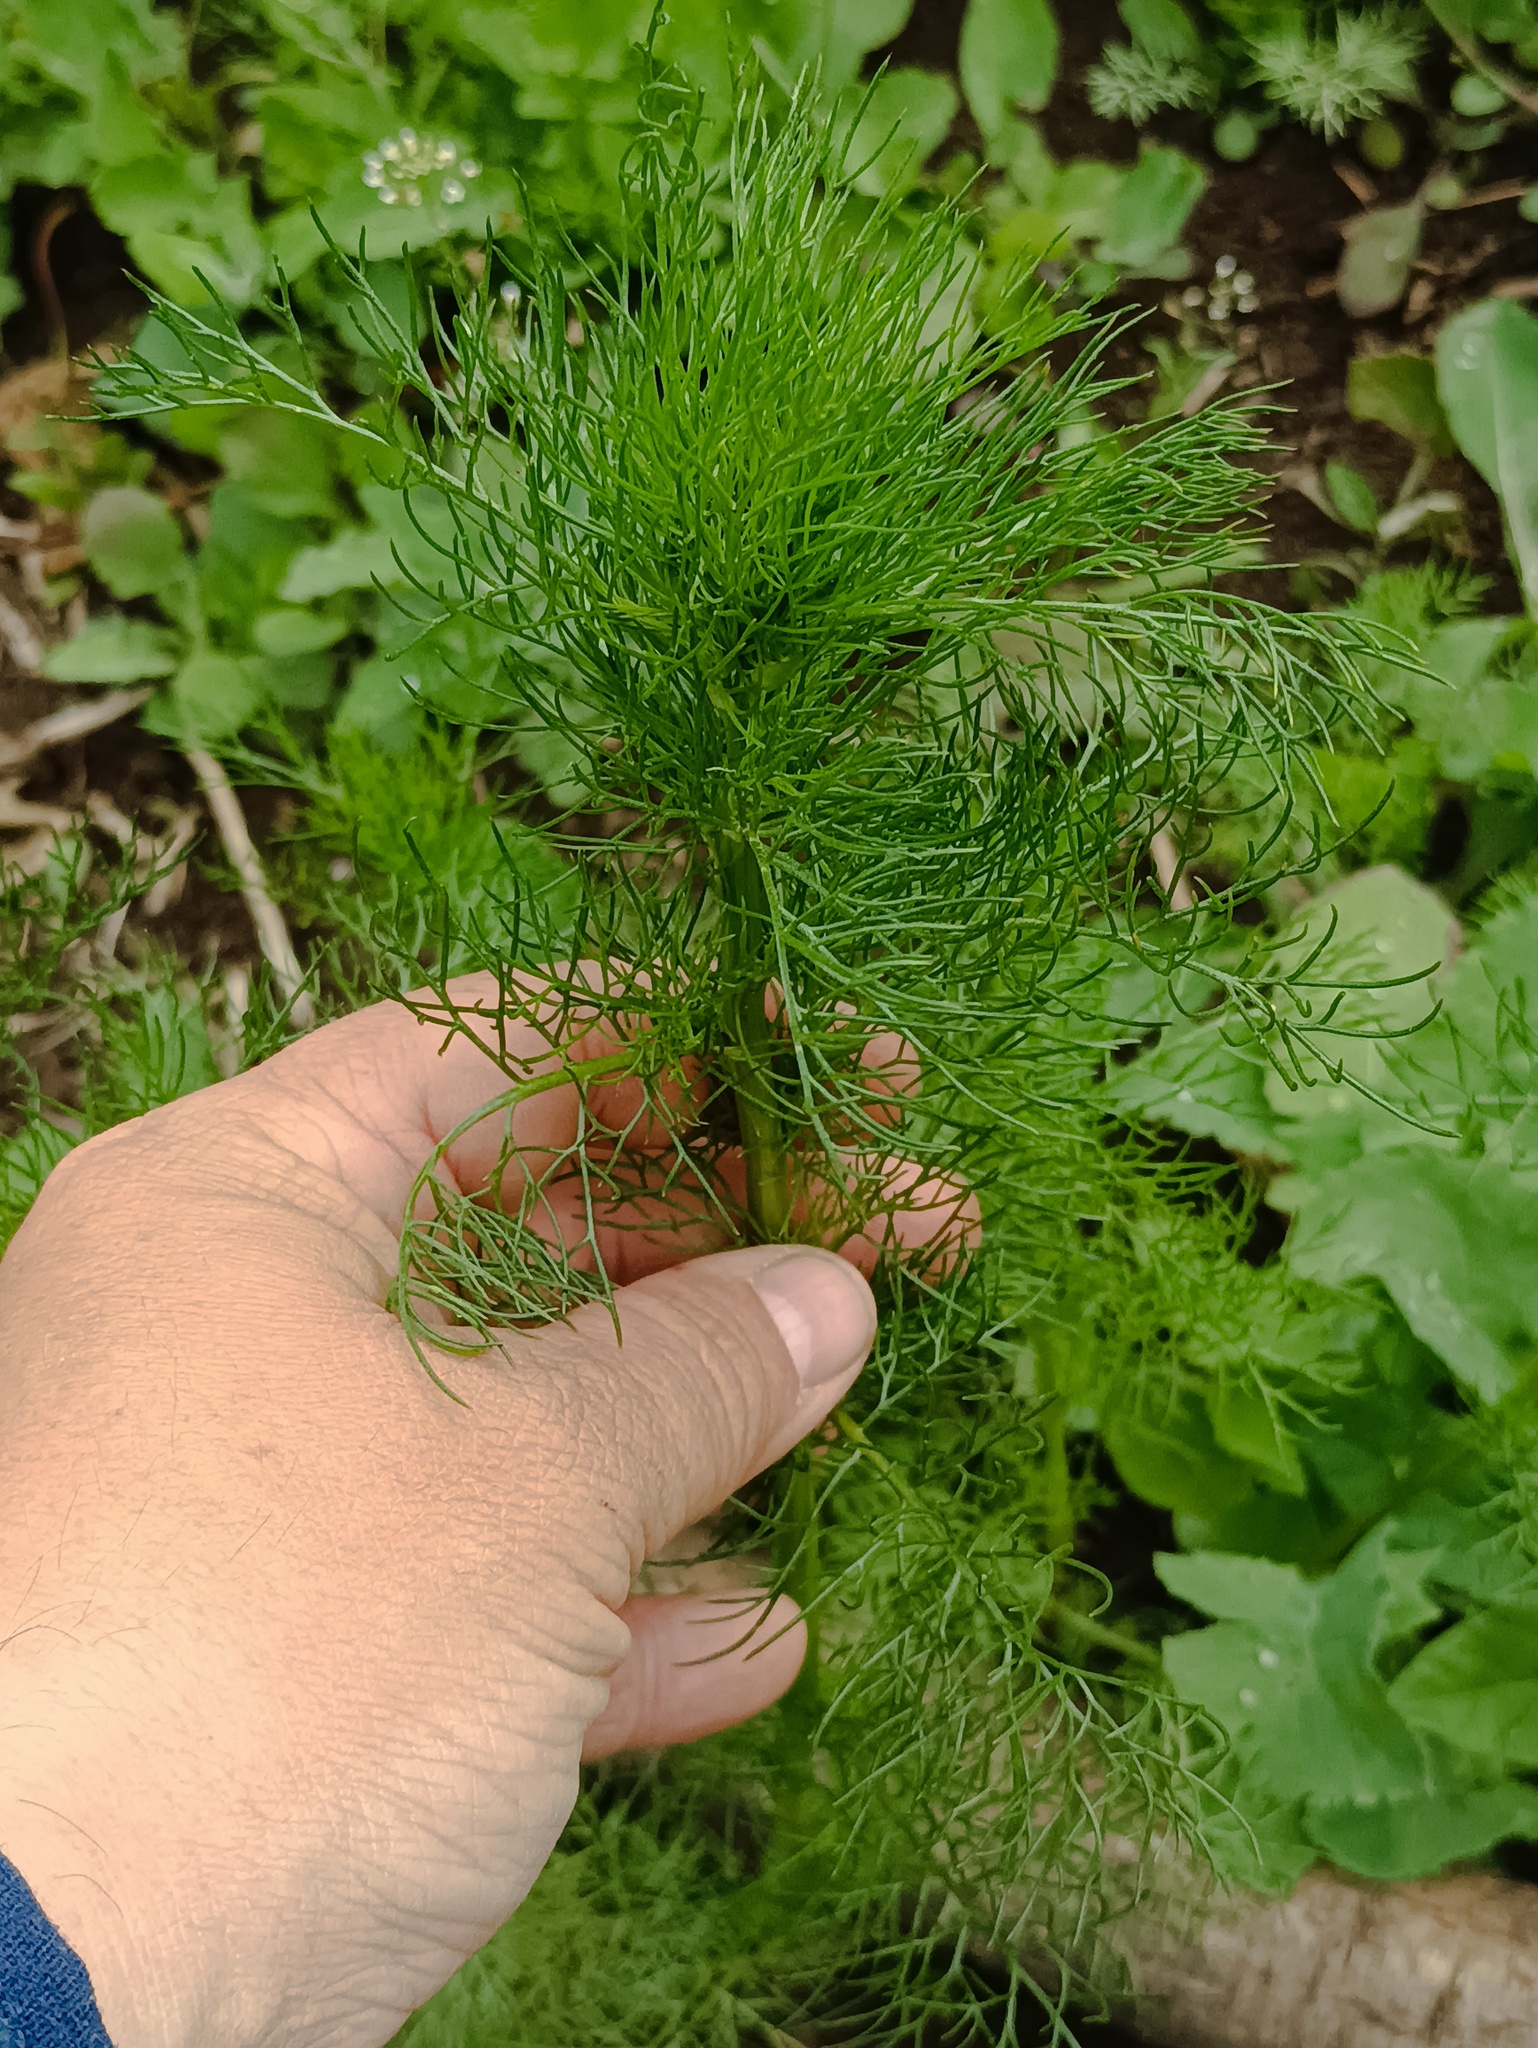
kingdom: Plantae
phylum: Tracheophyta
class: Magnoliopsida
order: Asterales
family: Asteraceae
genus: Tripleurospermum
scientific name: Tripleurospermum inodorum
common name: Scentless mayweed
